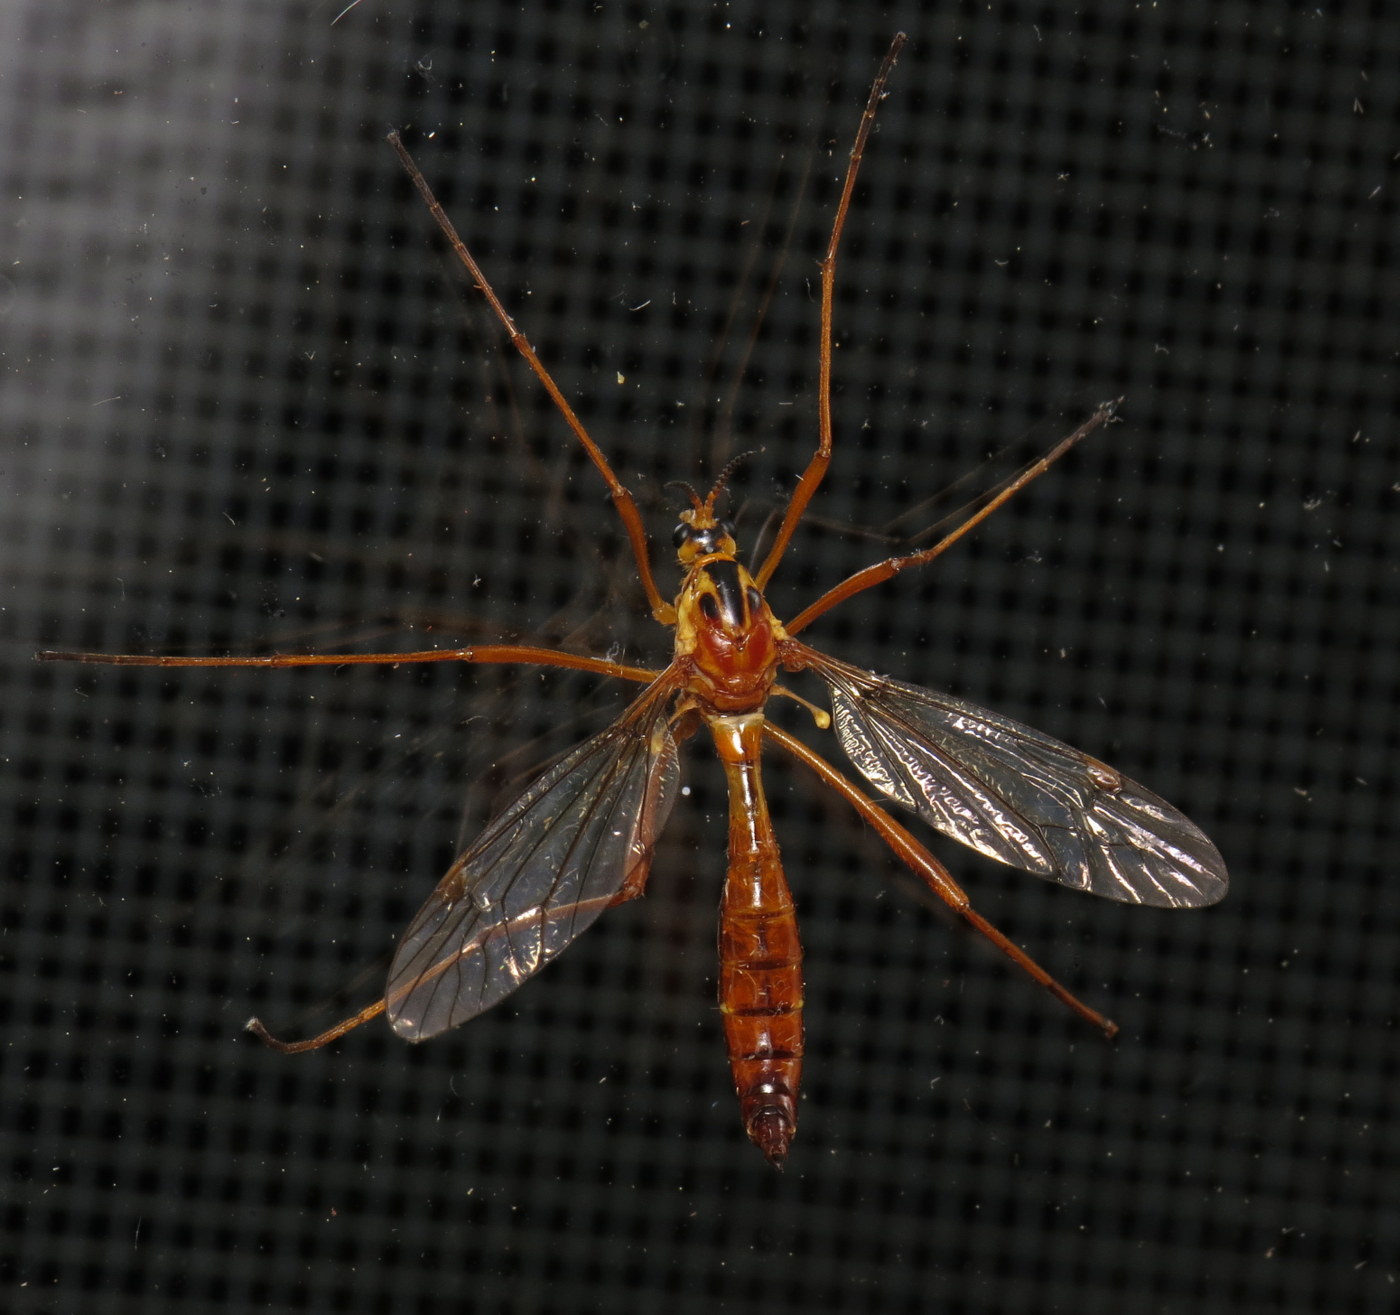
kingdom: Animalia
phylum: Arthropoda
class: Insecta
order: Diptera
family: Tipulidae
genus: Ctenophora
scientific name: Ctenophora nubecula
